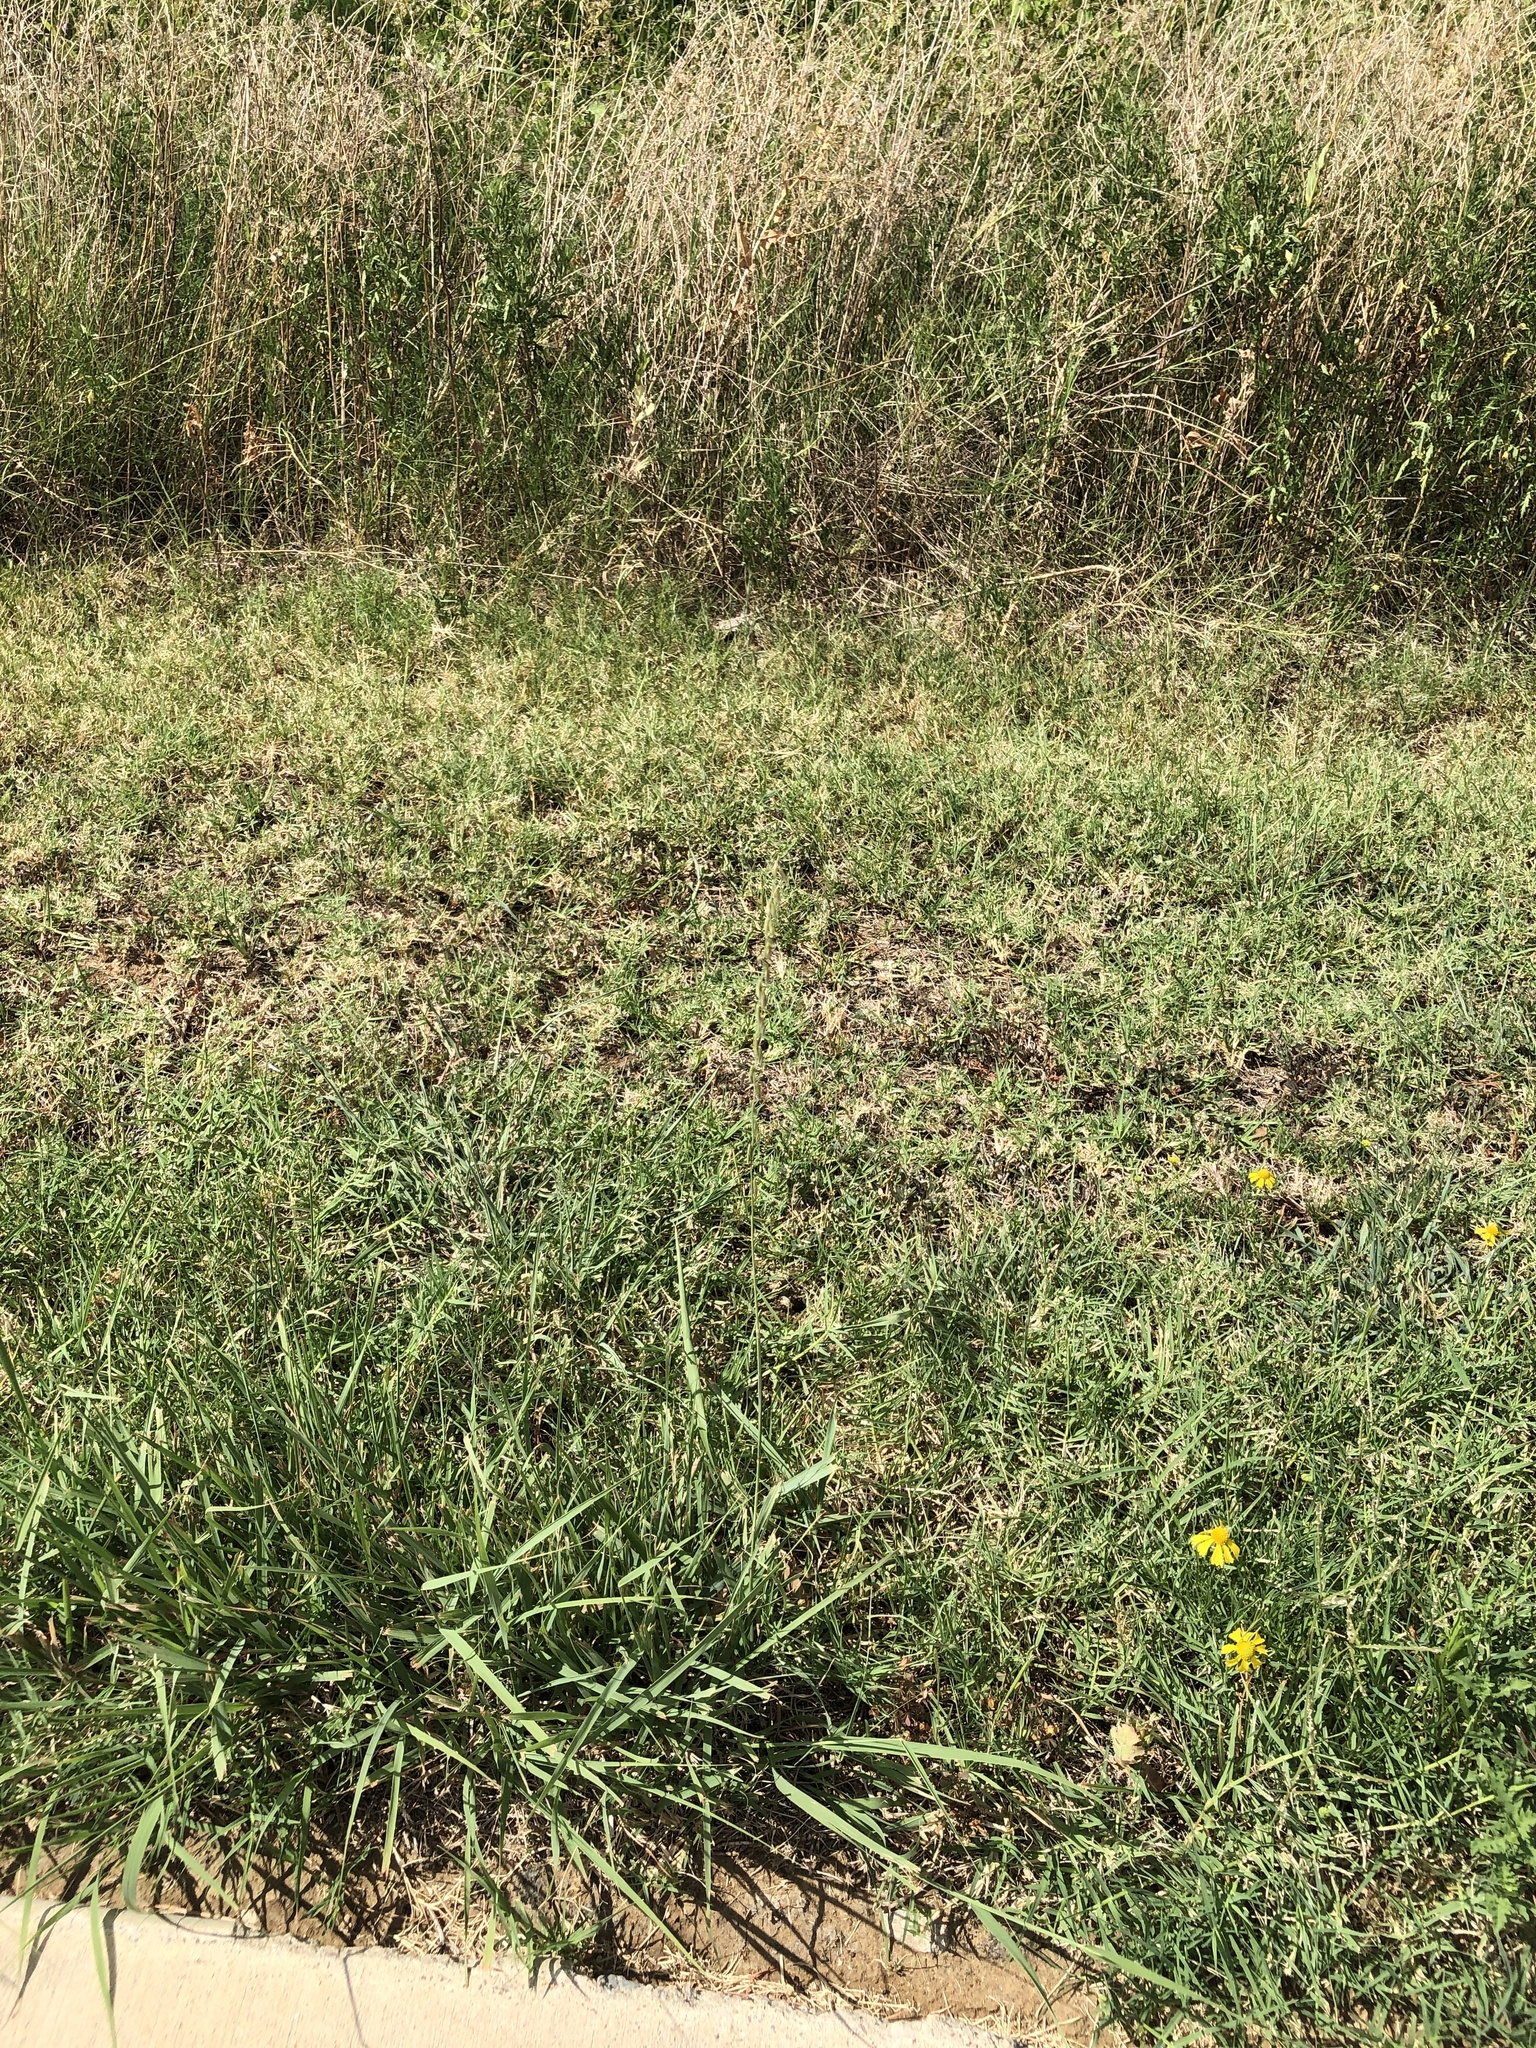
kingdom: Plantae
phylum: Tracheophyta
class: Liliopsida
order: Poales
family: Poaceae
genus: Bouteloua
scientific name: Bouteloua curtipendula
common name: Side-oats grama
